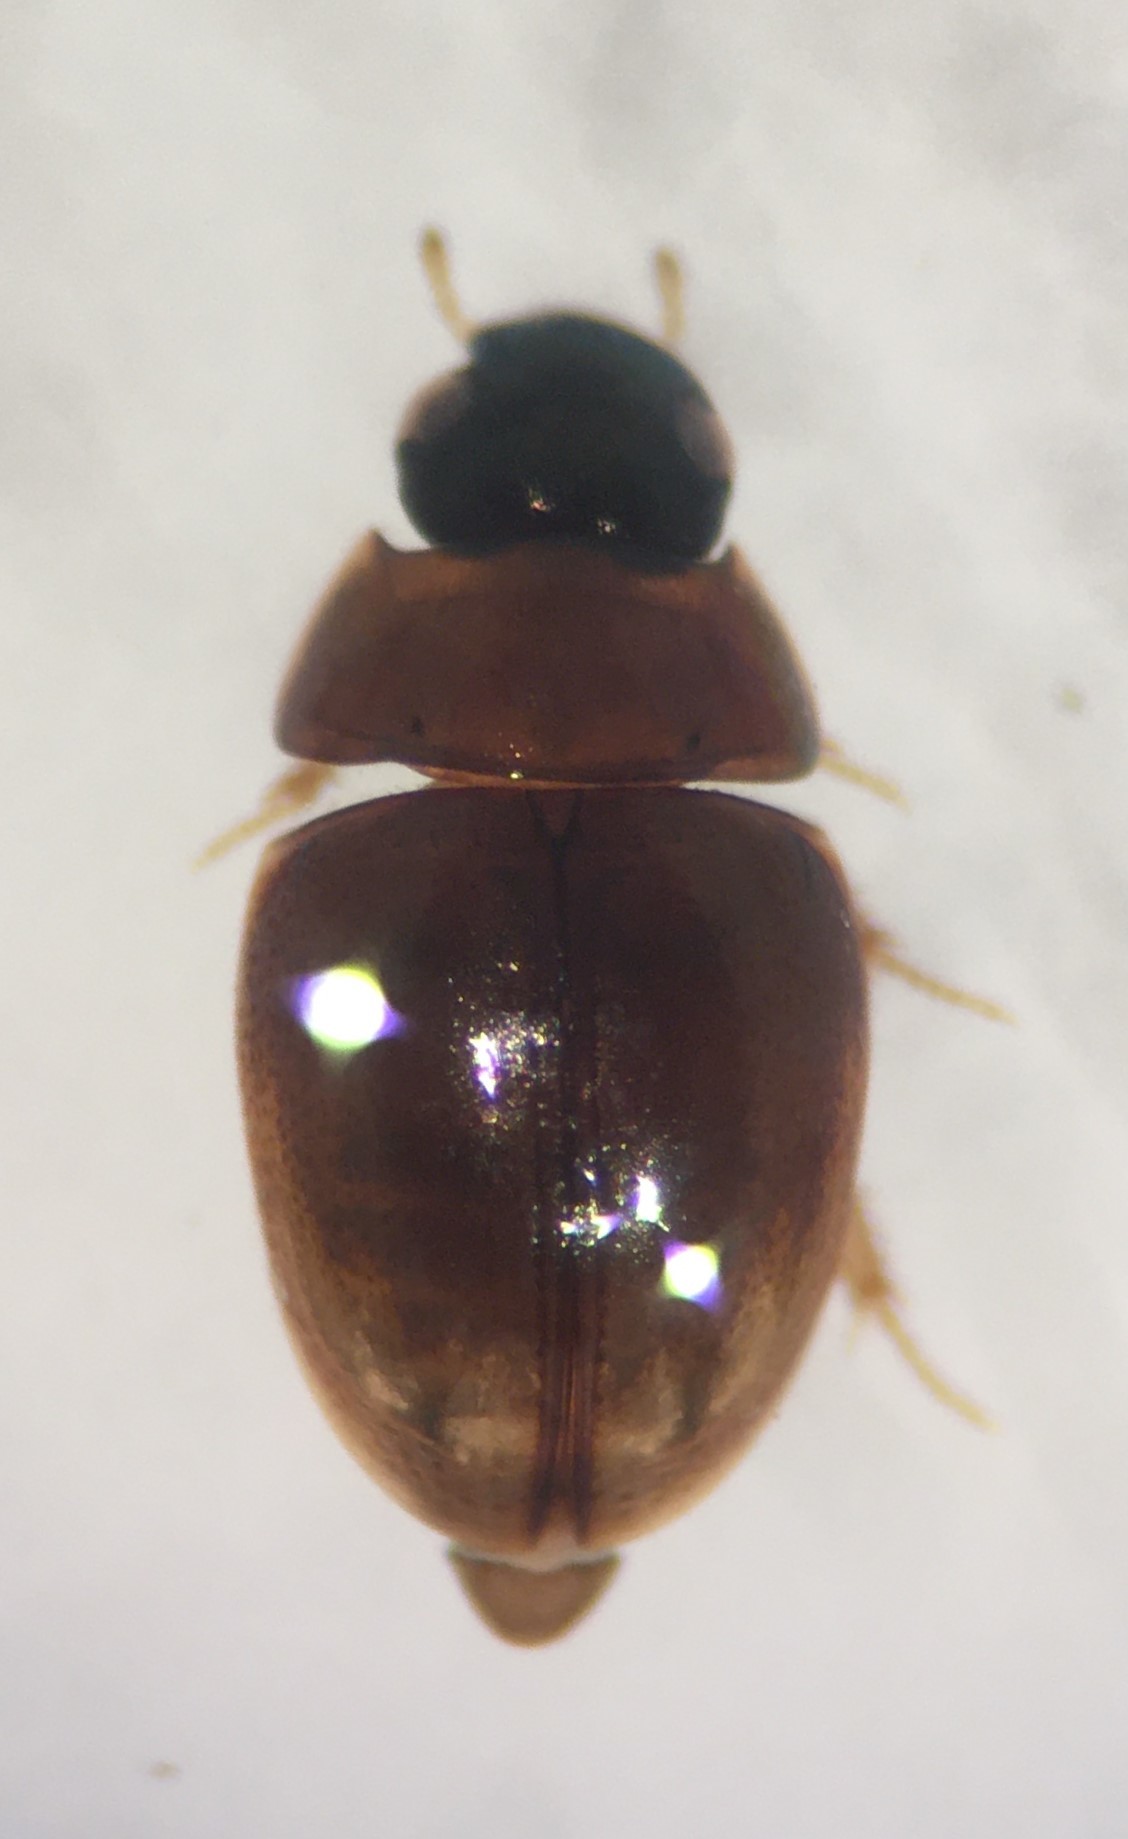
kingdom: Animalia
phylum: Arthropoda
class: Insecta
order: Coleoptera
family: Hydrophilidae
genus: Paracymus
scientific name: Paracymus lodingi
